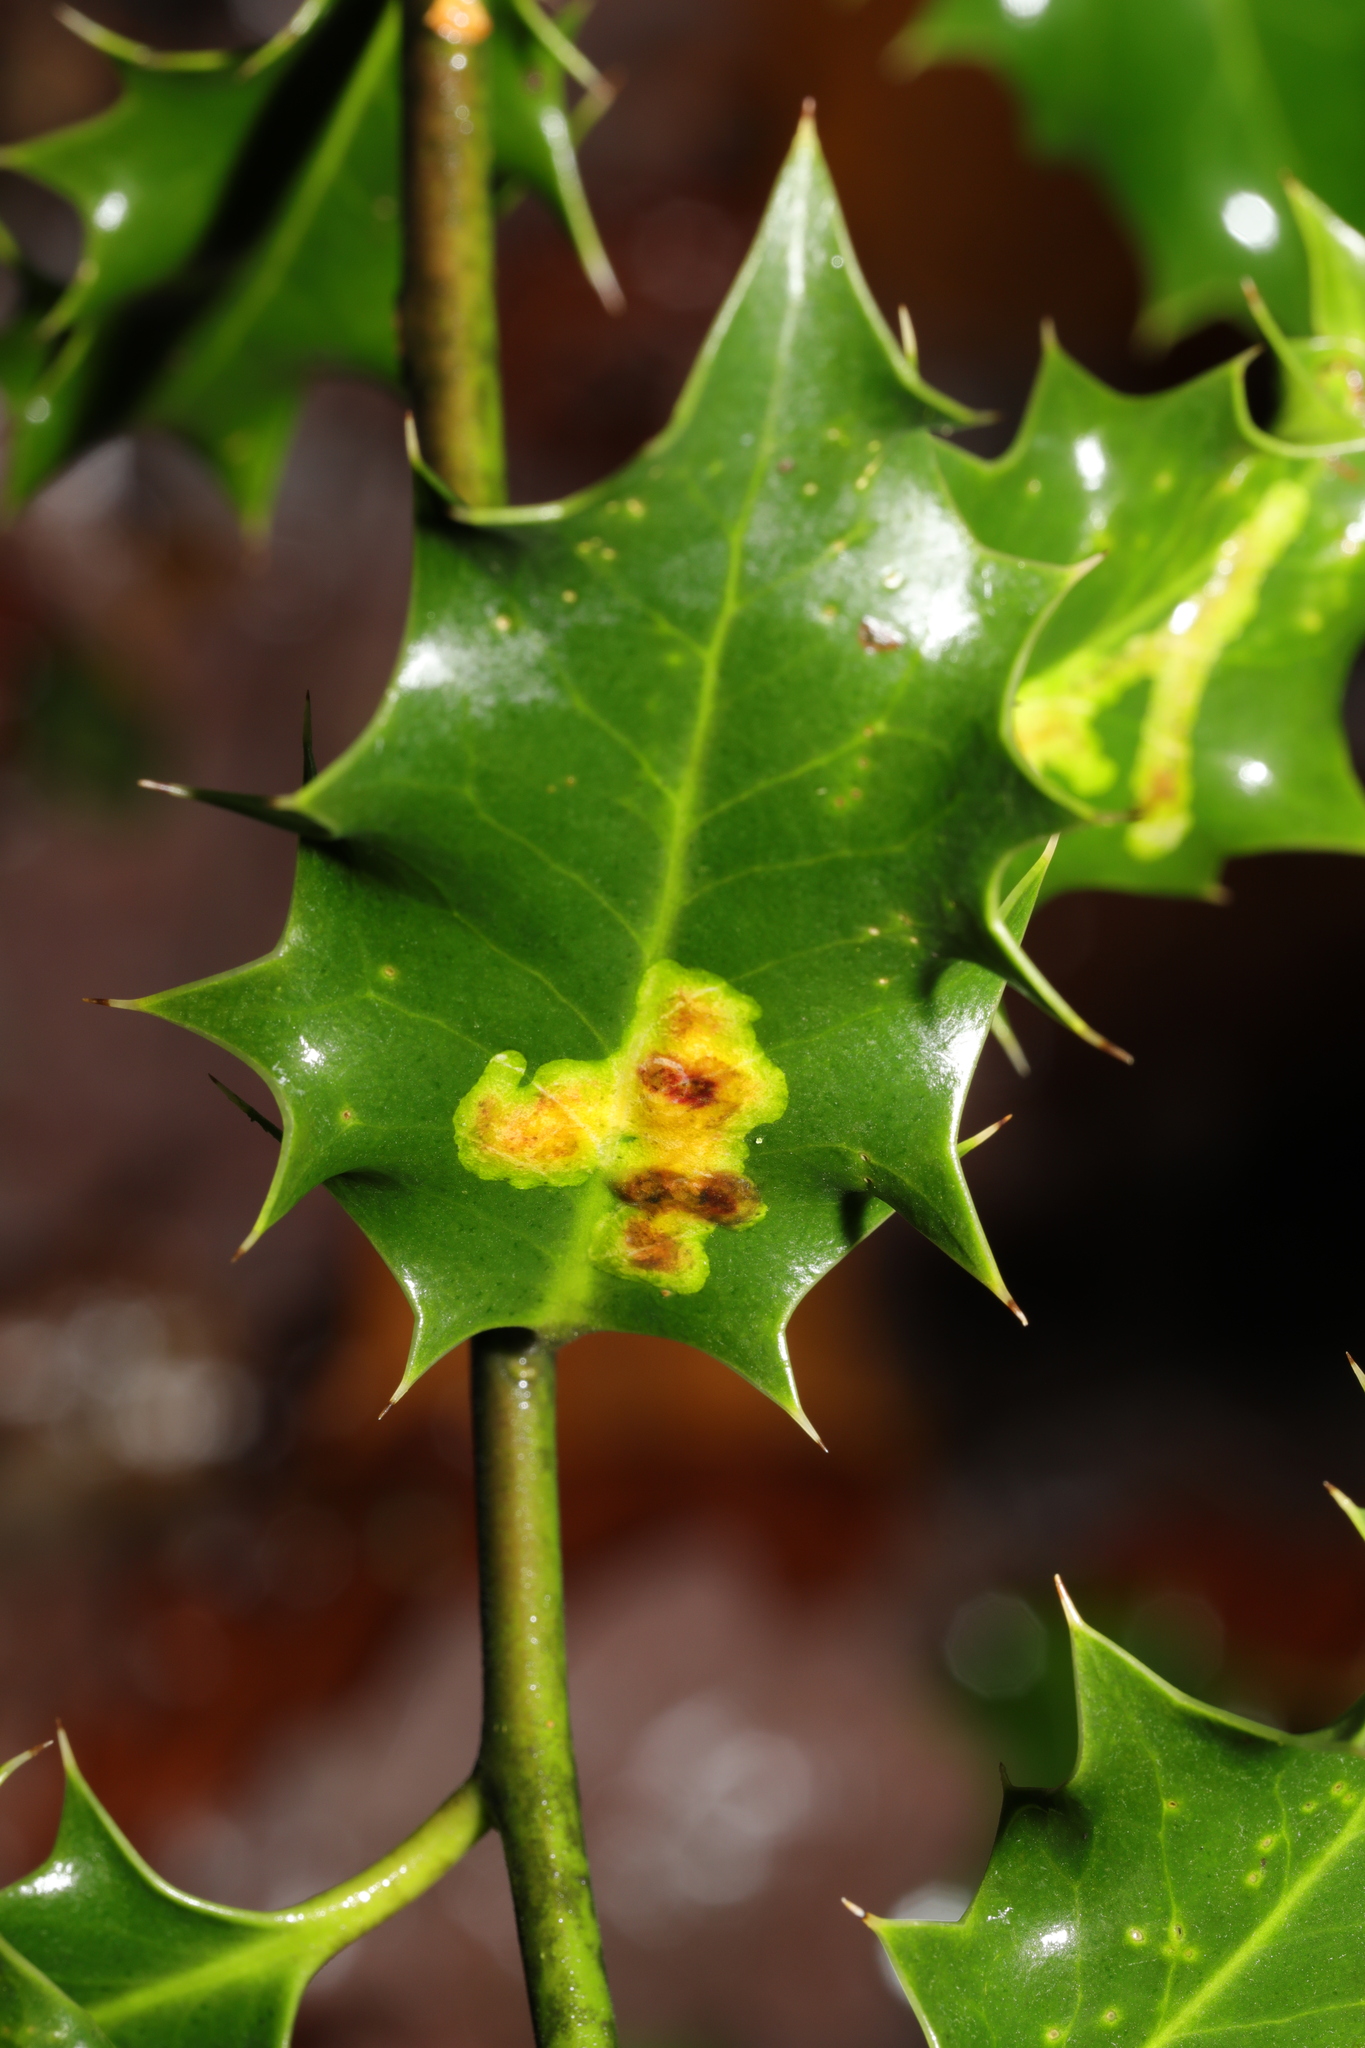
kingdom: Animalia
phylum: Arthropoda
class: Insecta
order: Diptera
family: Agromyzidae
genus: Phytomyza
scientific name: Phytomyza ilicis
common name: Holly leafminer
